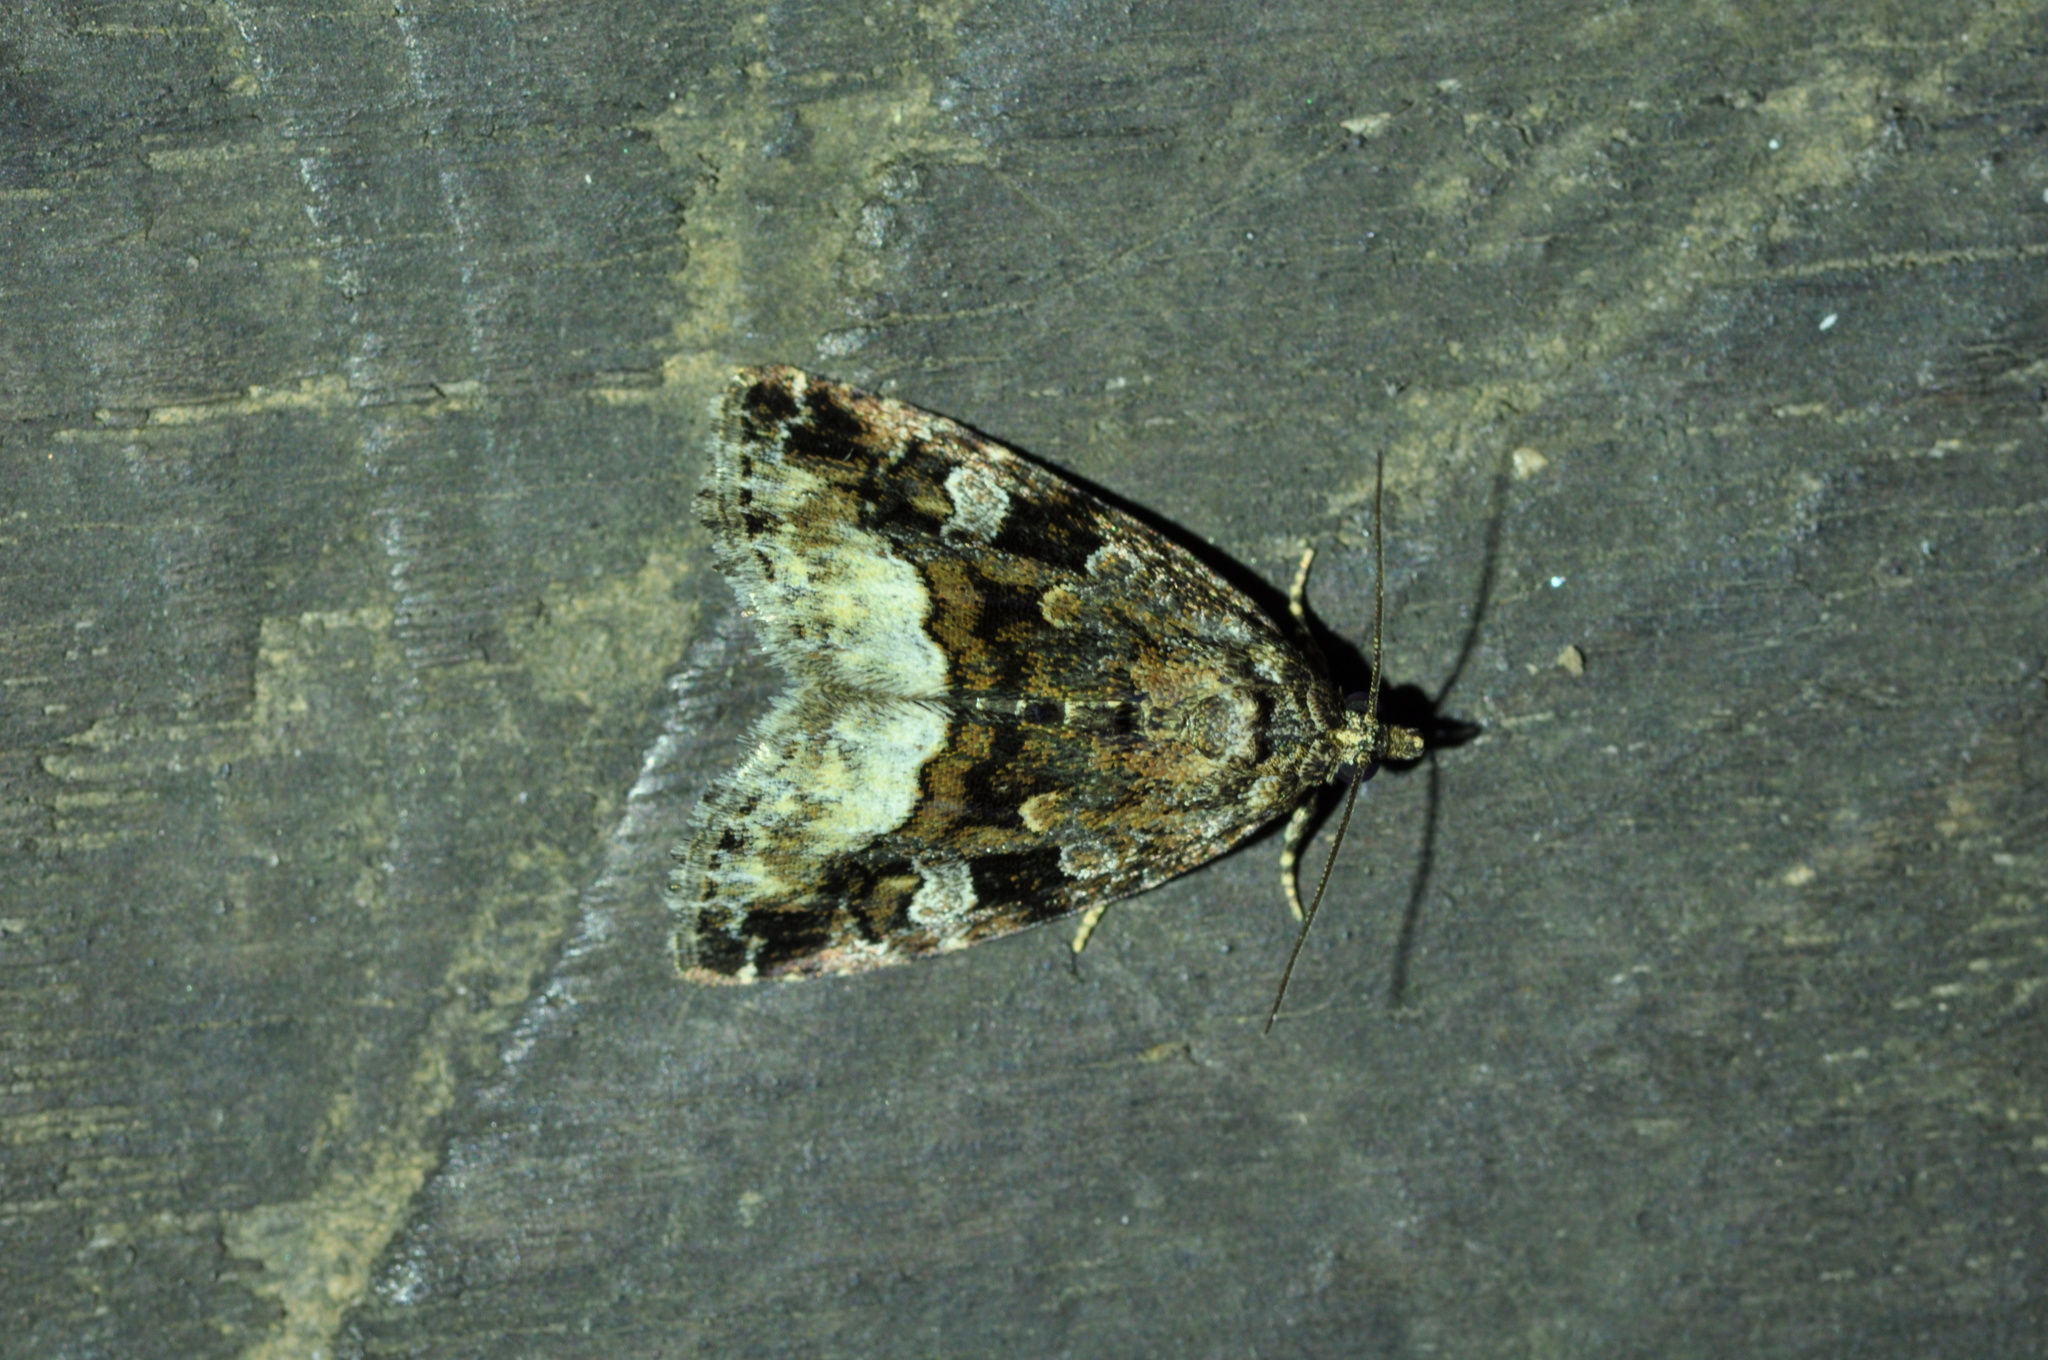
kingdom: Animalia
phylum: Arthropoda
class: Insecta
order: Lepidoptera
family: Noctuidae
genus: Deltote
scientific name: Deltote pygarga
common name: Marbled white spot
